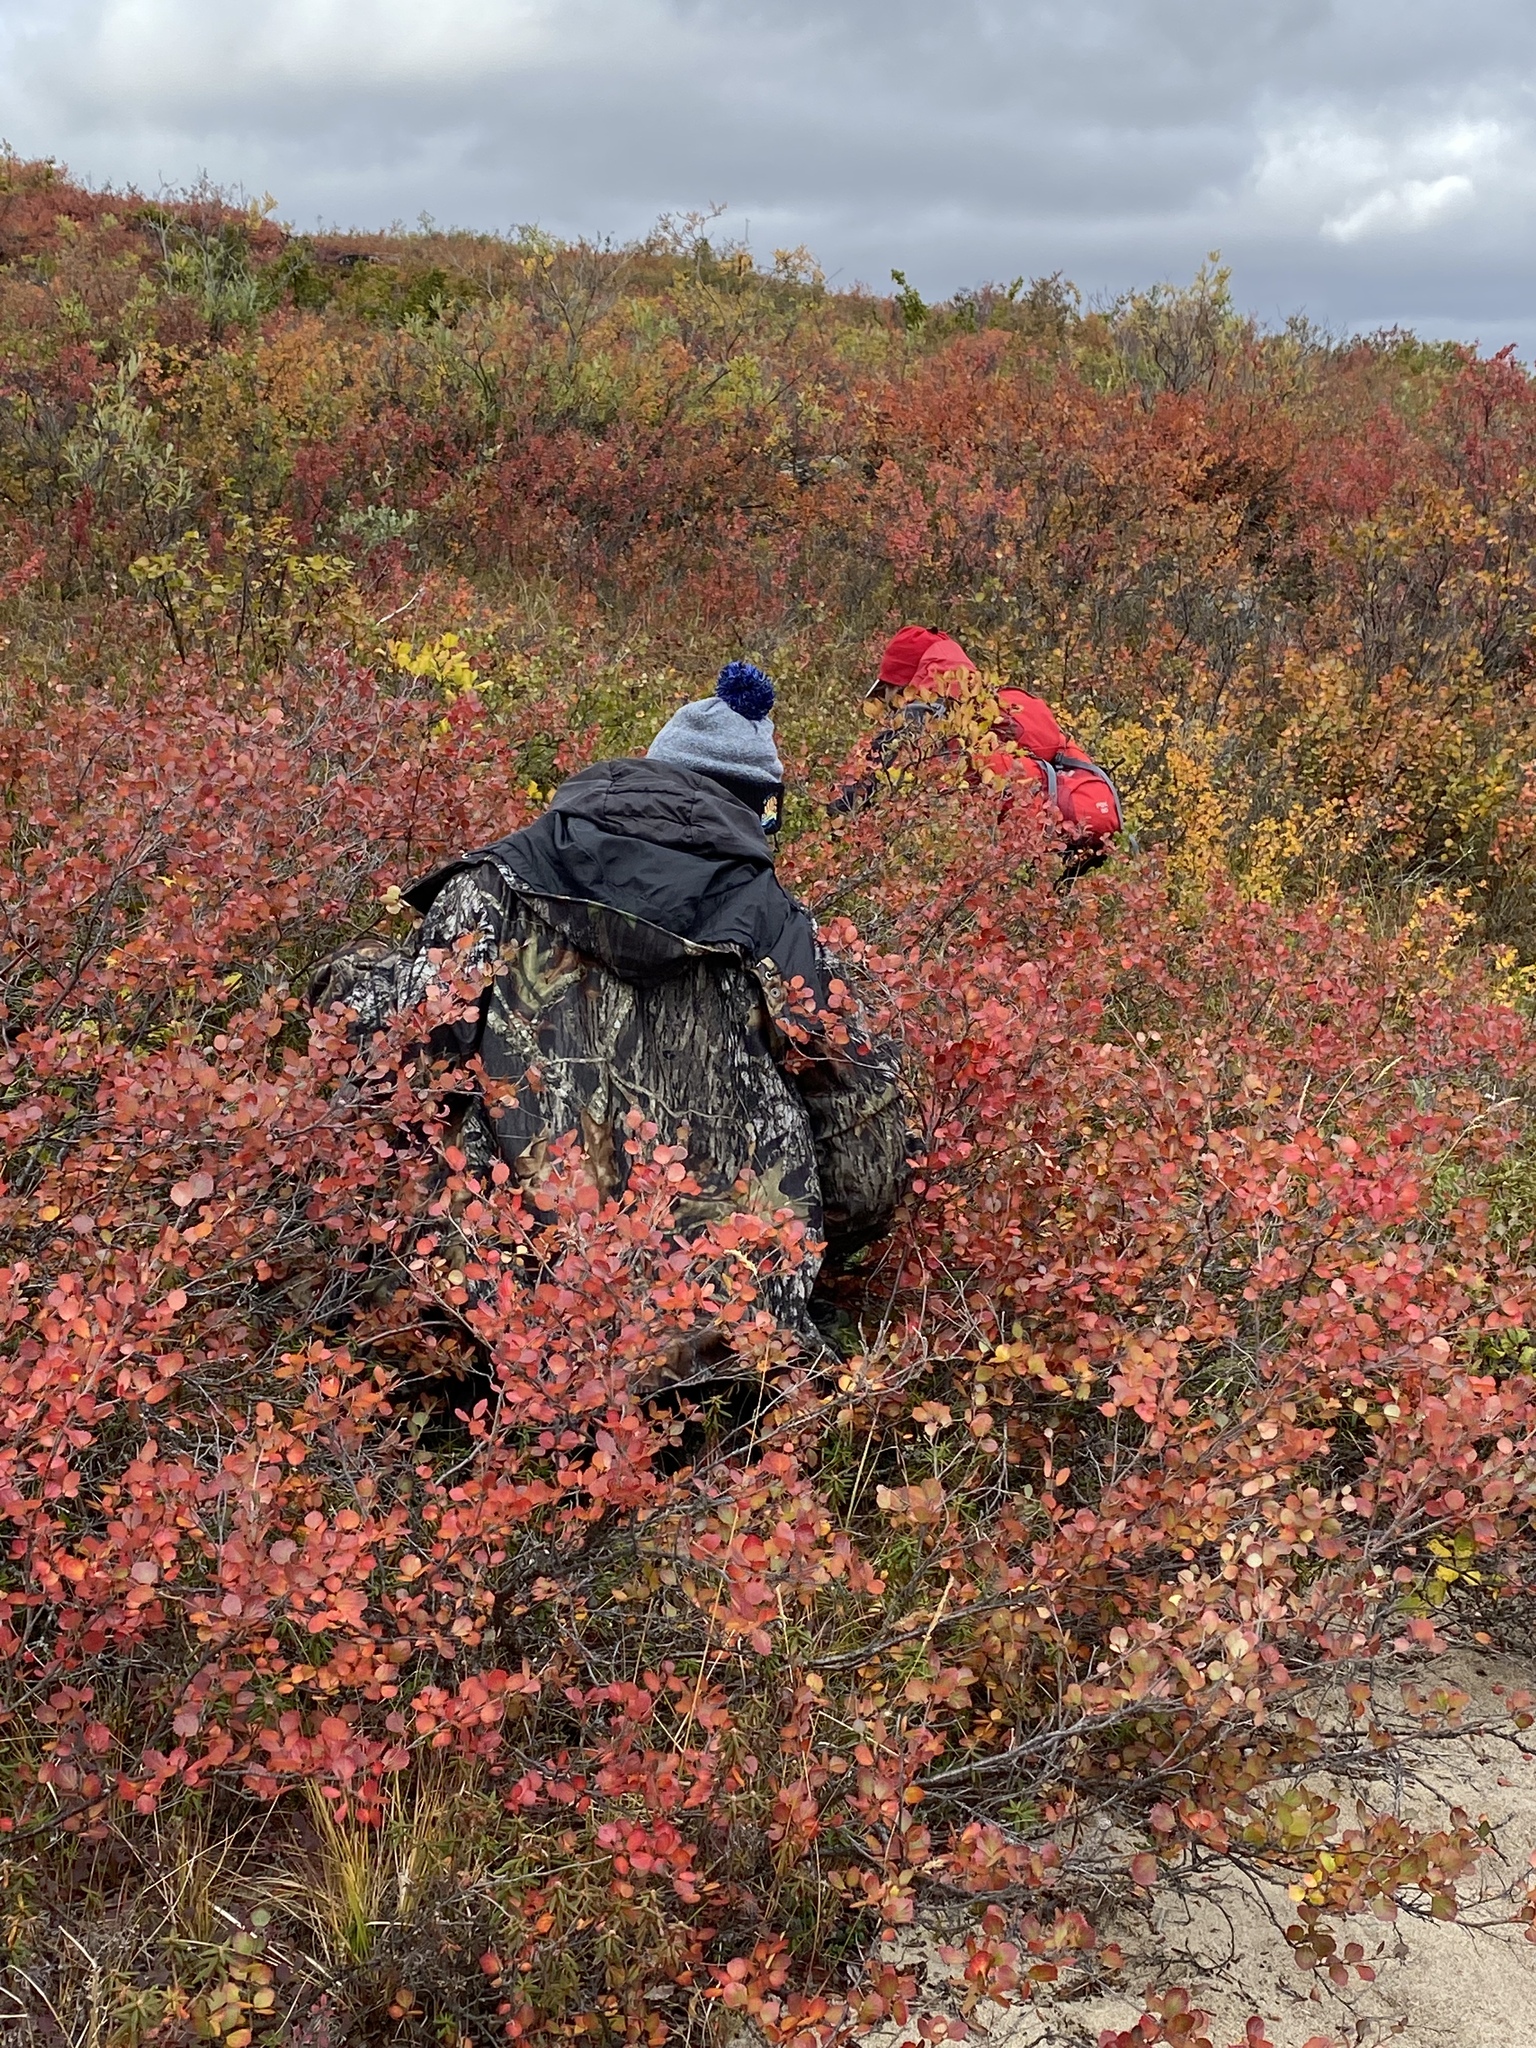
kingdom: Plantae
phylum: Tracheophyta
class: Magnoliopsida
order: Fagales
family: Betulaceae
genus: Betula
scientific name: Betula glandulosa
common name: Dwarf birch
